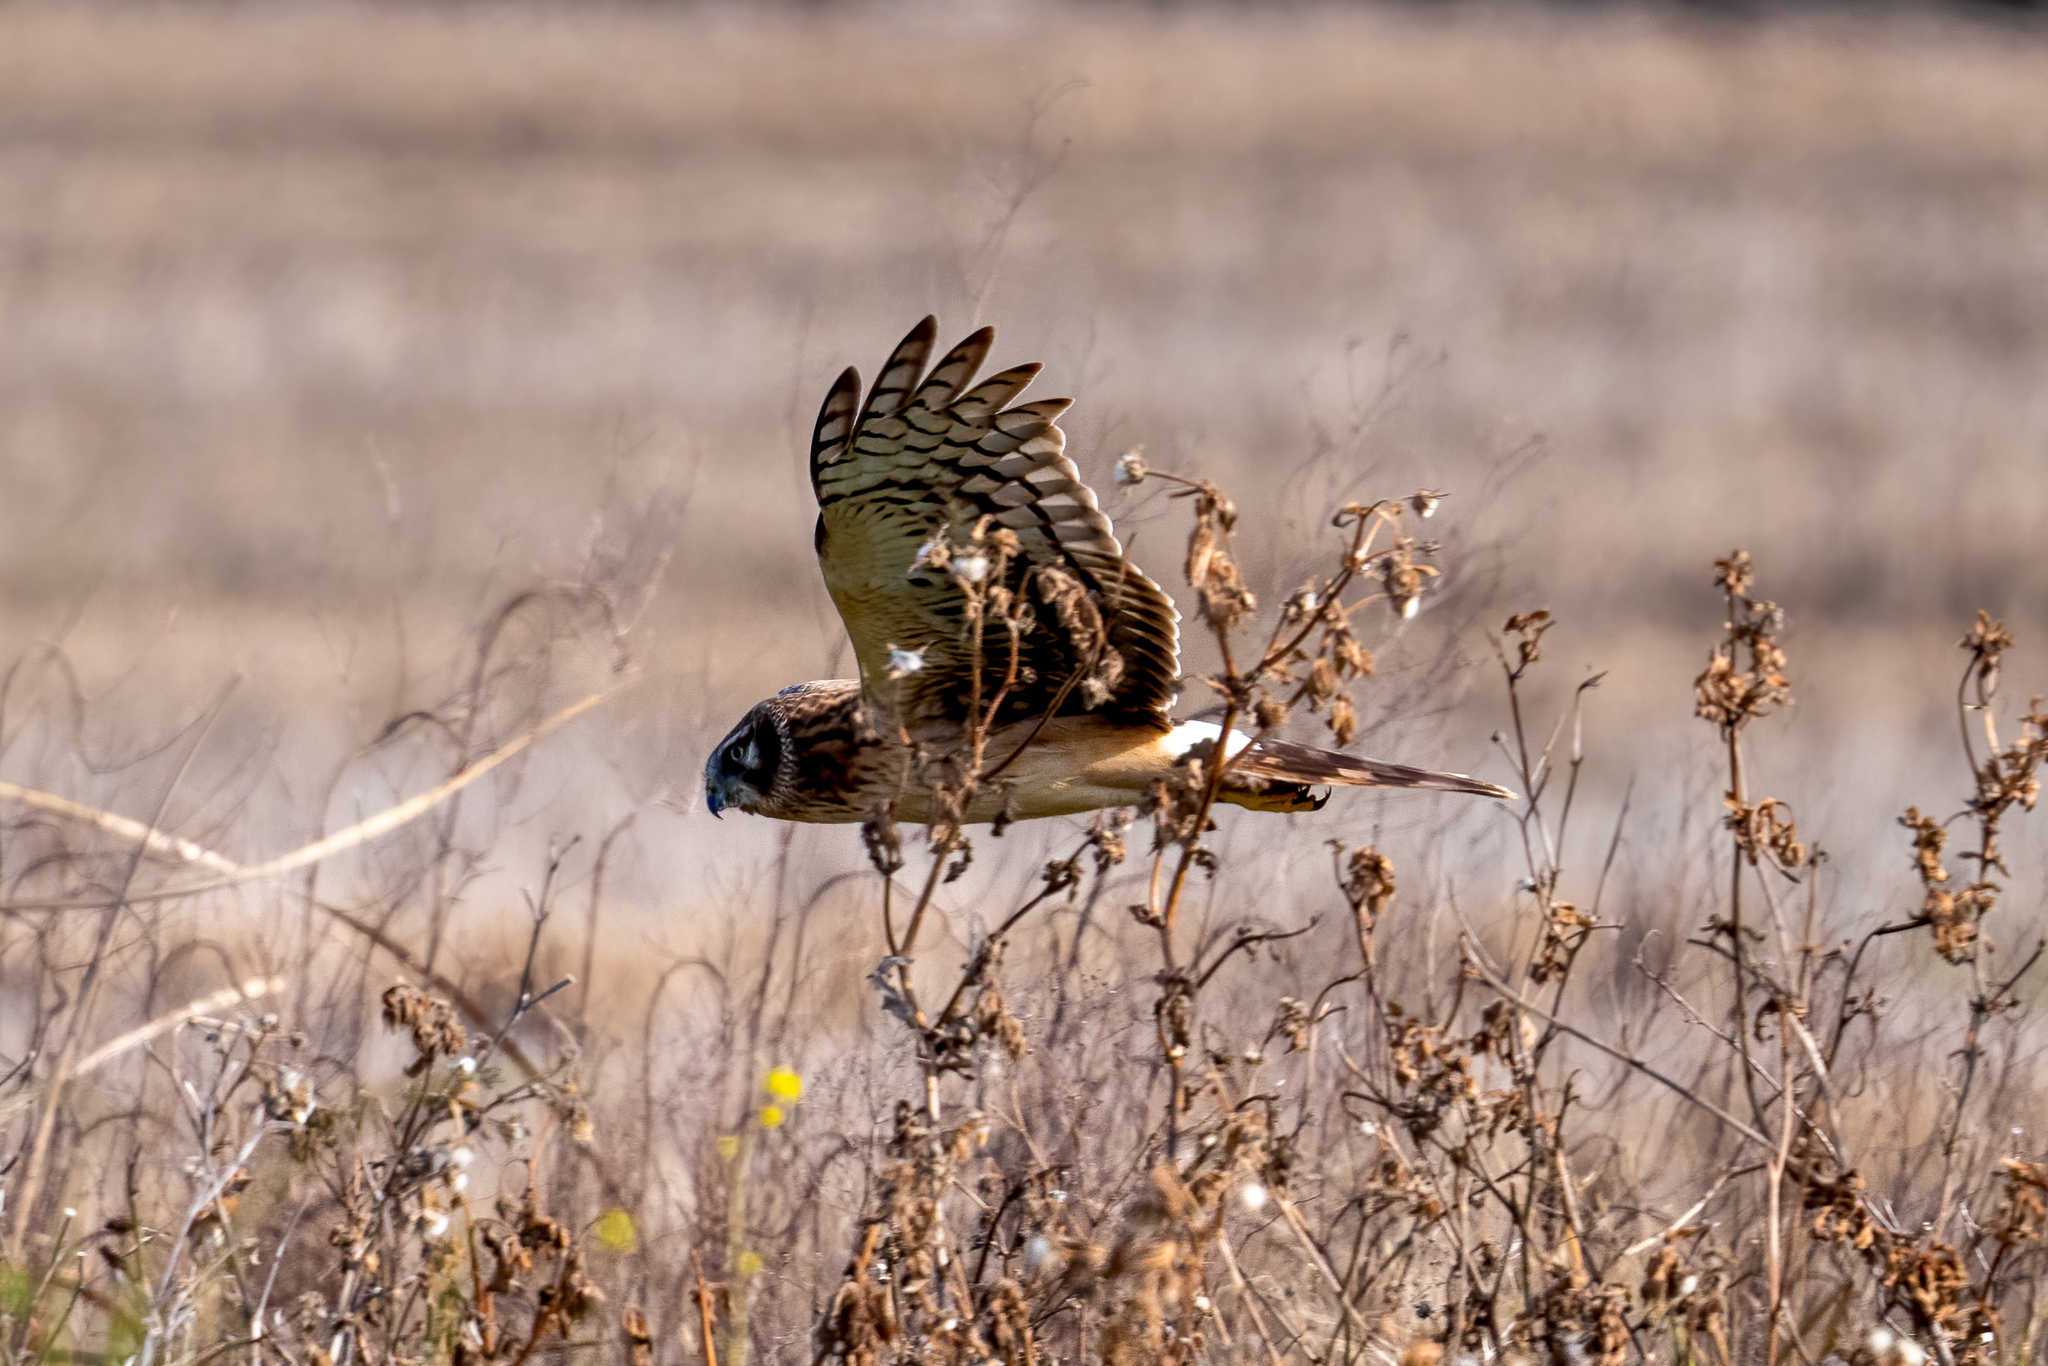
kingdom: Animalia
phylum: Chordata
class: Aves
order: Accipitriformes
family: Accipitridae
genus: Circus
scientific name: Circus cyaneus
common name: Hen harrier
